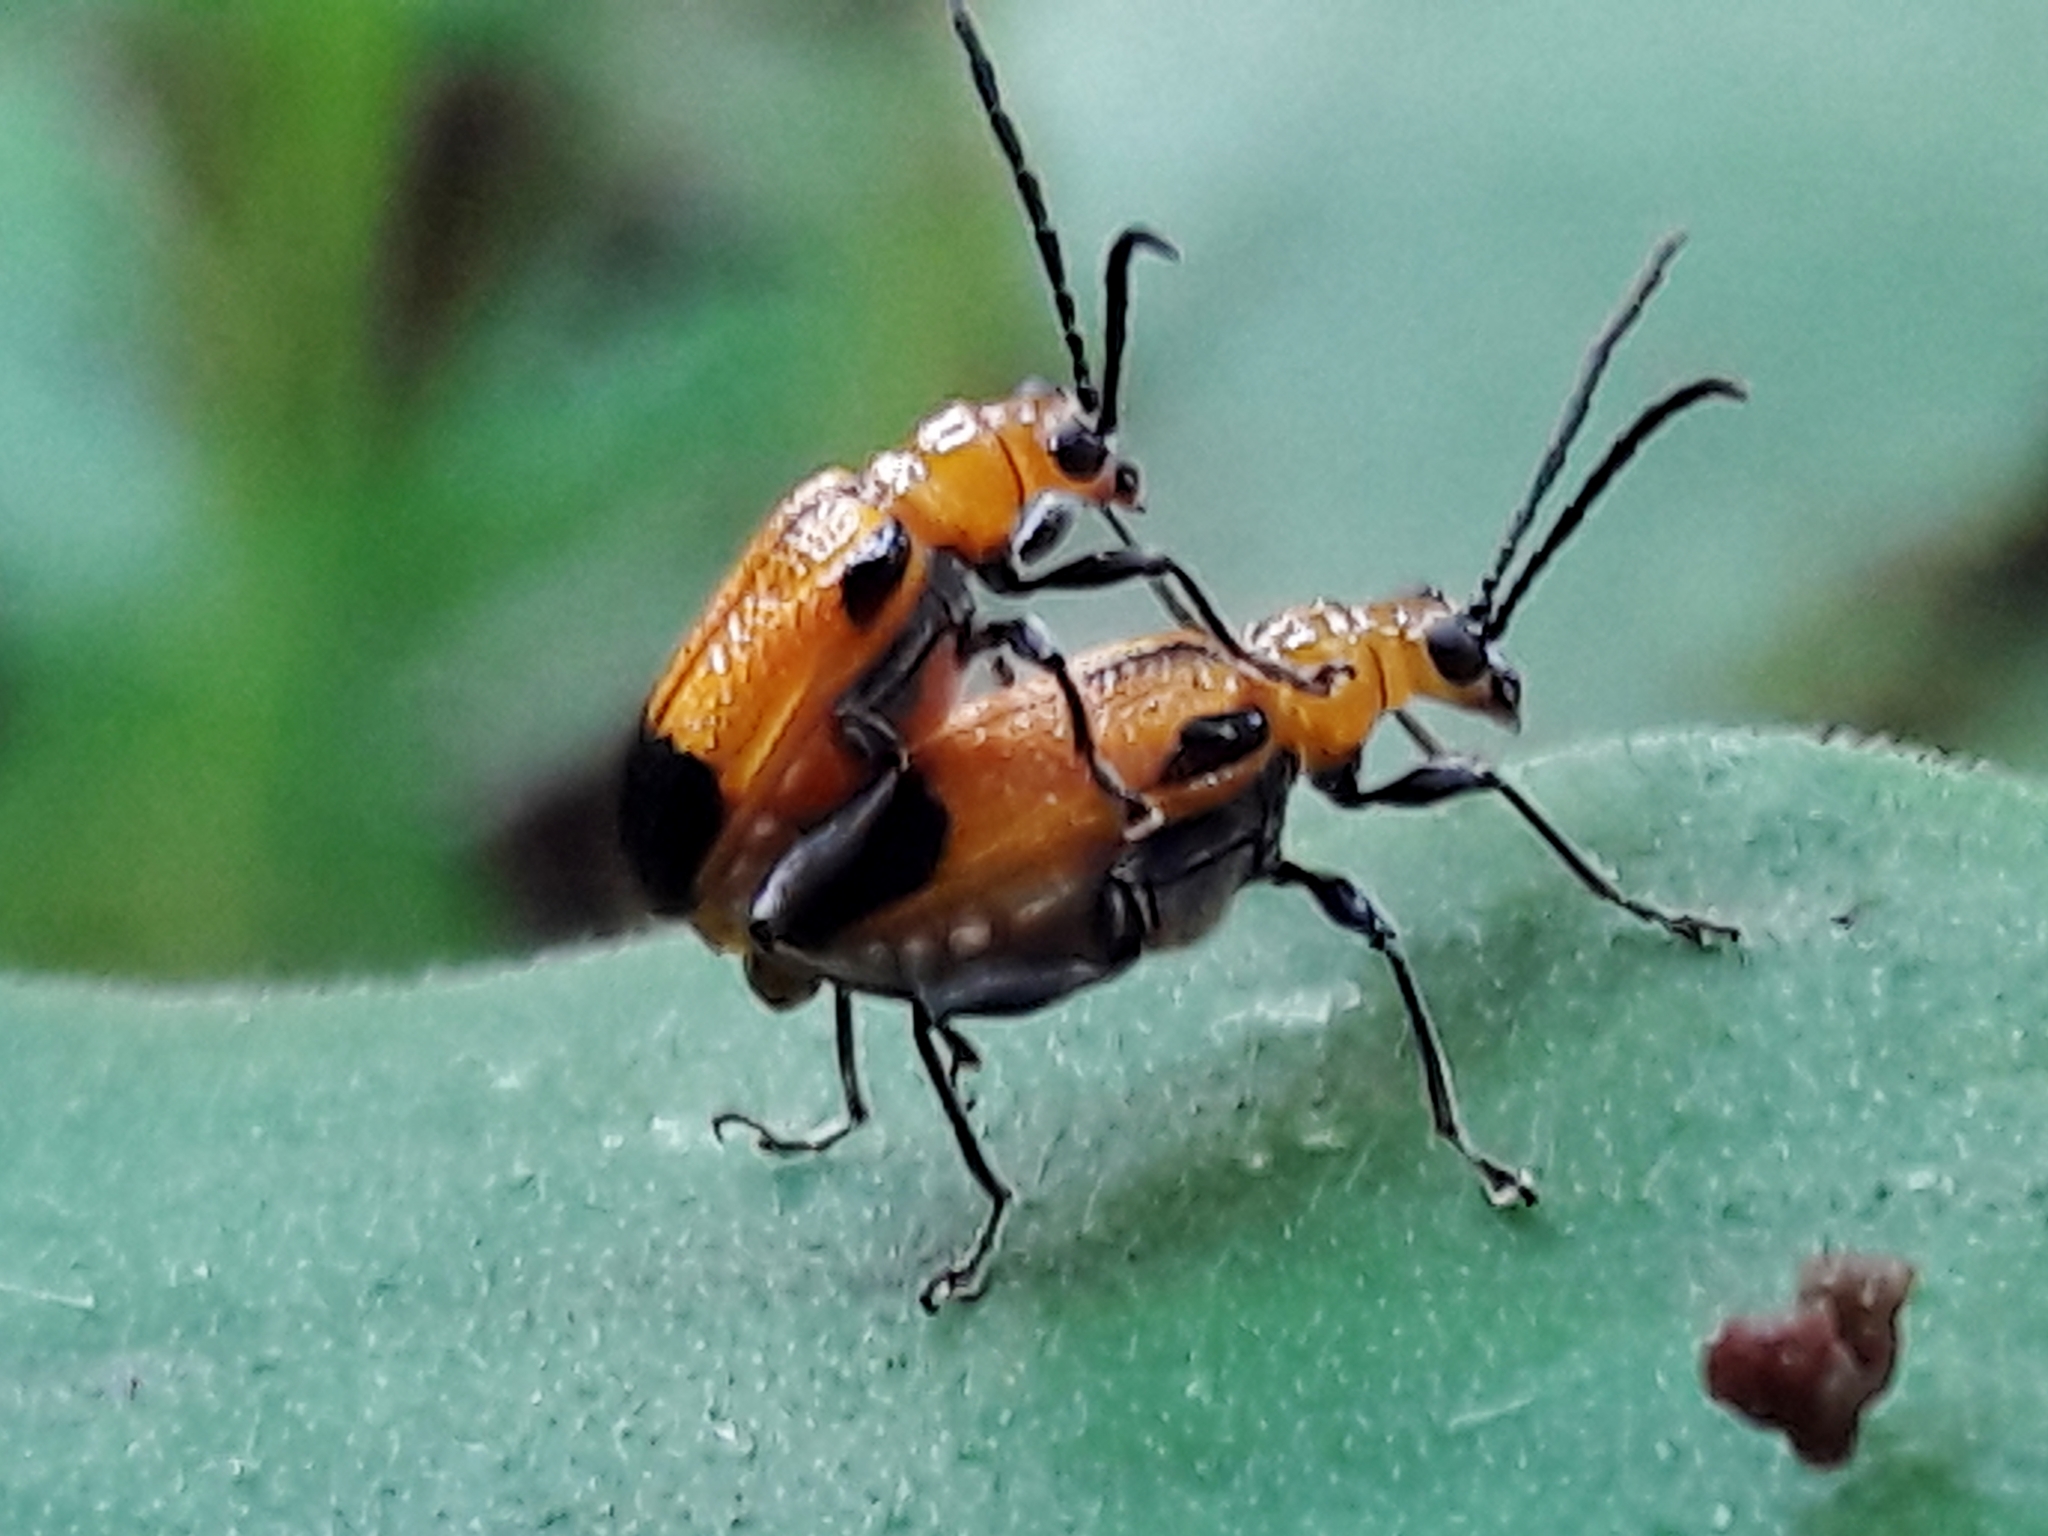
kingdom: Animalia
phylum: Arthropoda
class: Insecta
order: Coleoptera
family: Chrysomelidae
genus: Neolema
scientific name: Neolema dorsalis
